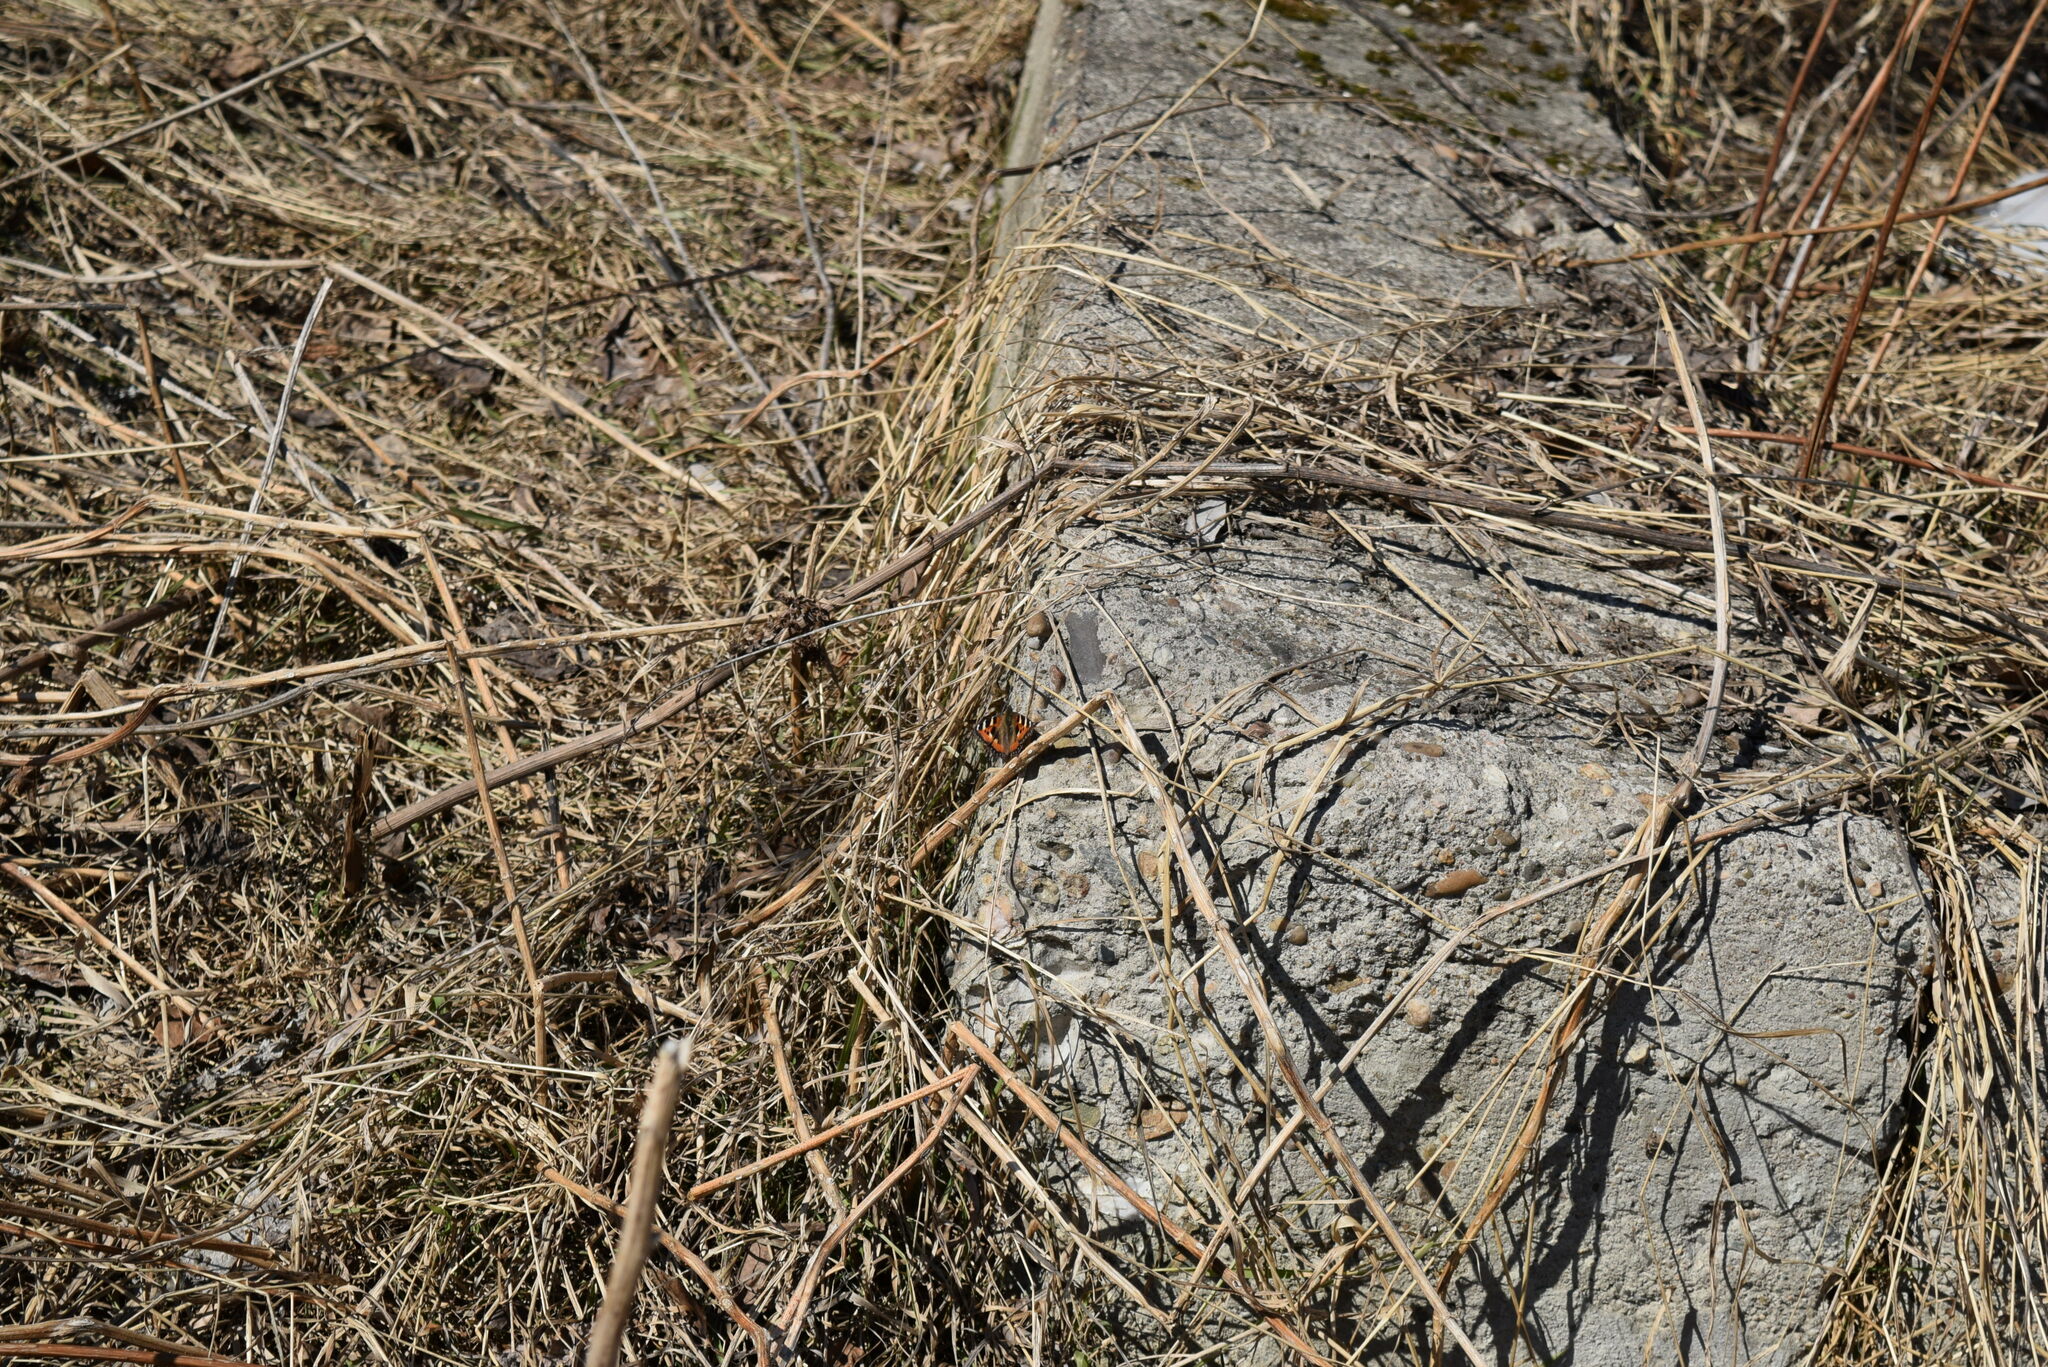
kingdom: Animalia
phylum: Arthropoda
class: Insecta
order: Lepidoptera
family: Nymphalidae
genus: Aglais
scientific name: Aglais urticae
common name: Small tortoiseshell
